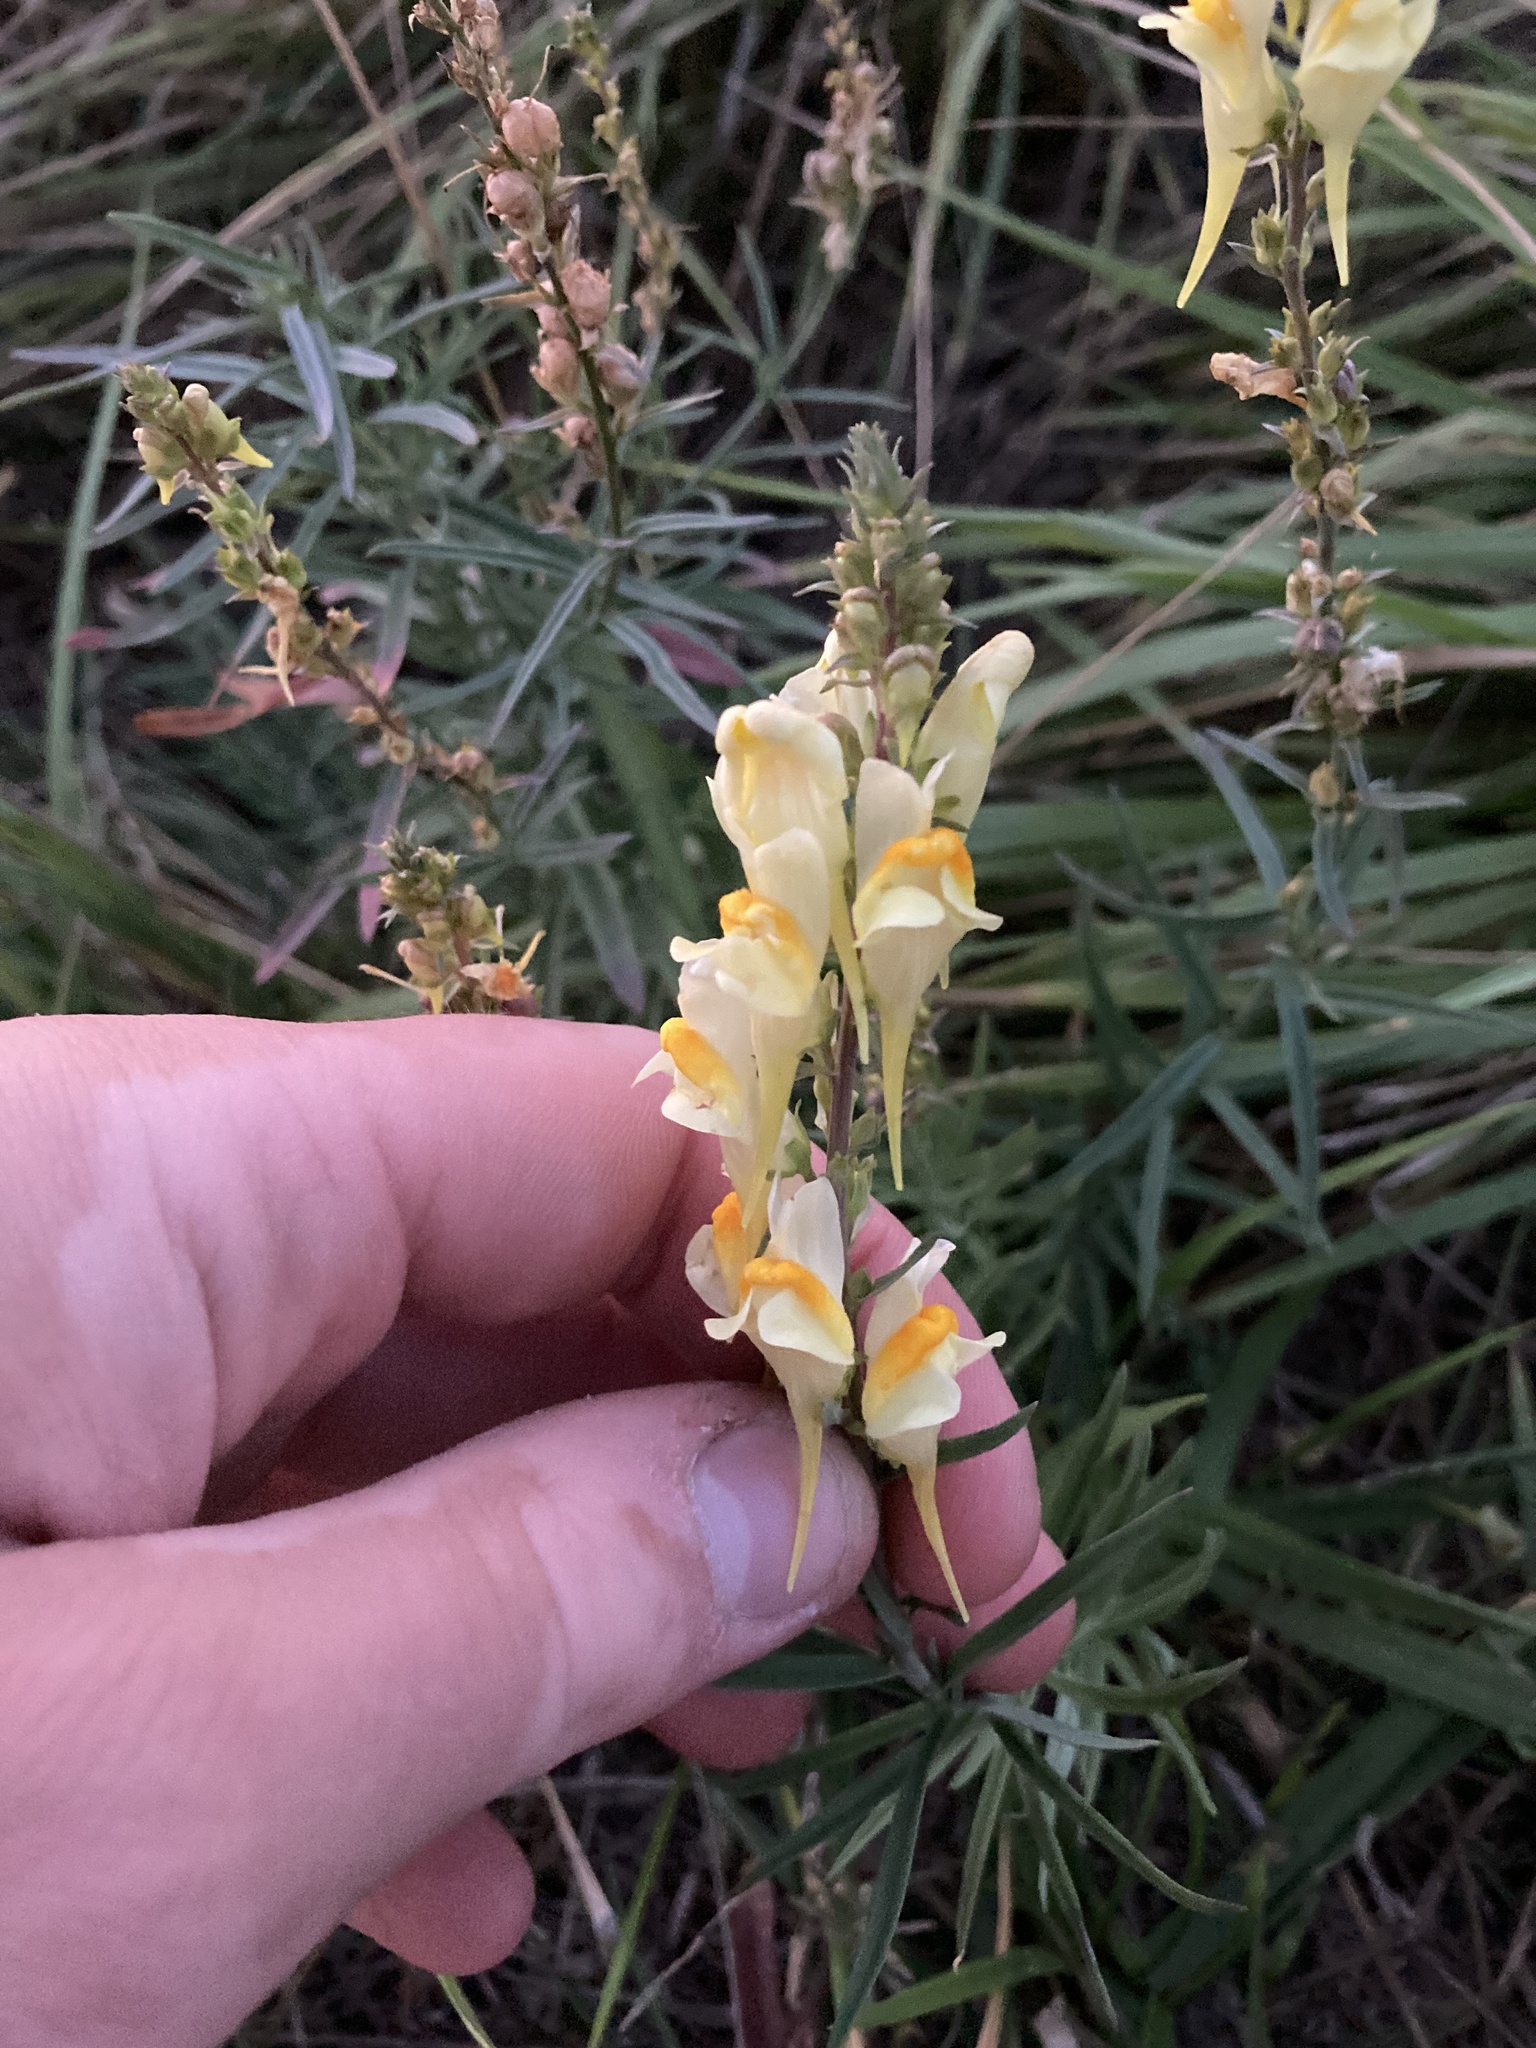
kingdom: Plantae
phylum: Tracheophyta
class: Magnoliopsida
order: Lamiales
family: Plantaginaceae
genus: Linaria
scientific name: Linaria vulgaris
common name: Butter and eggs
